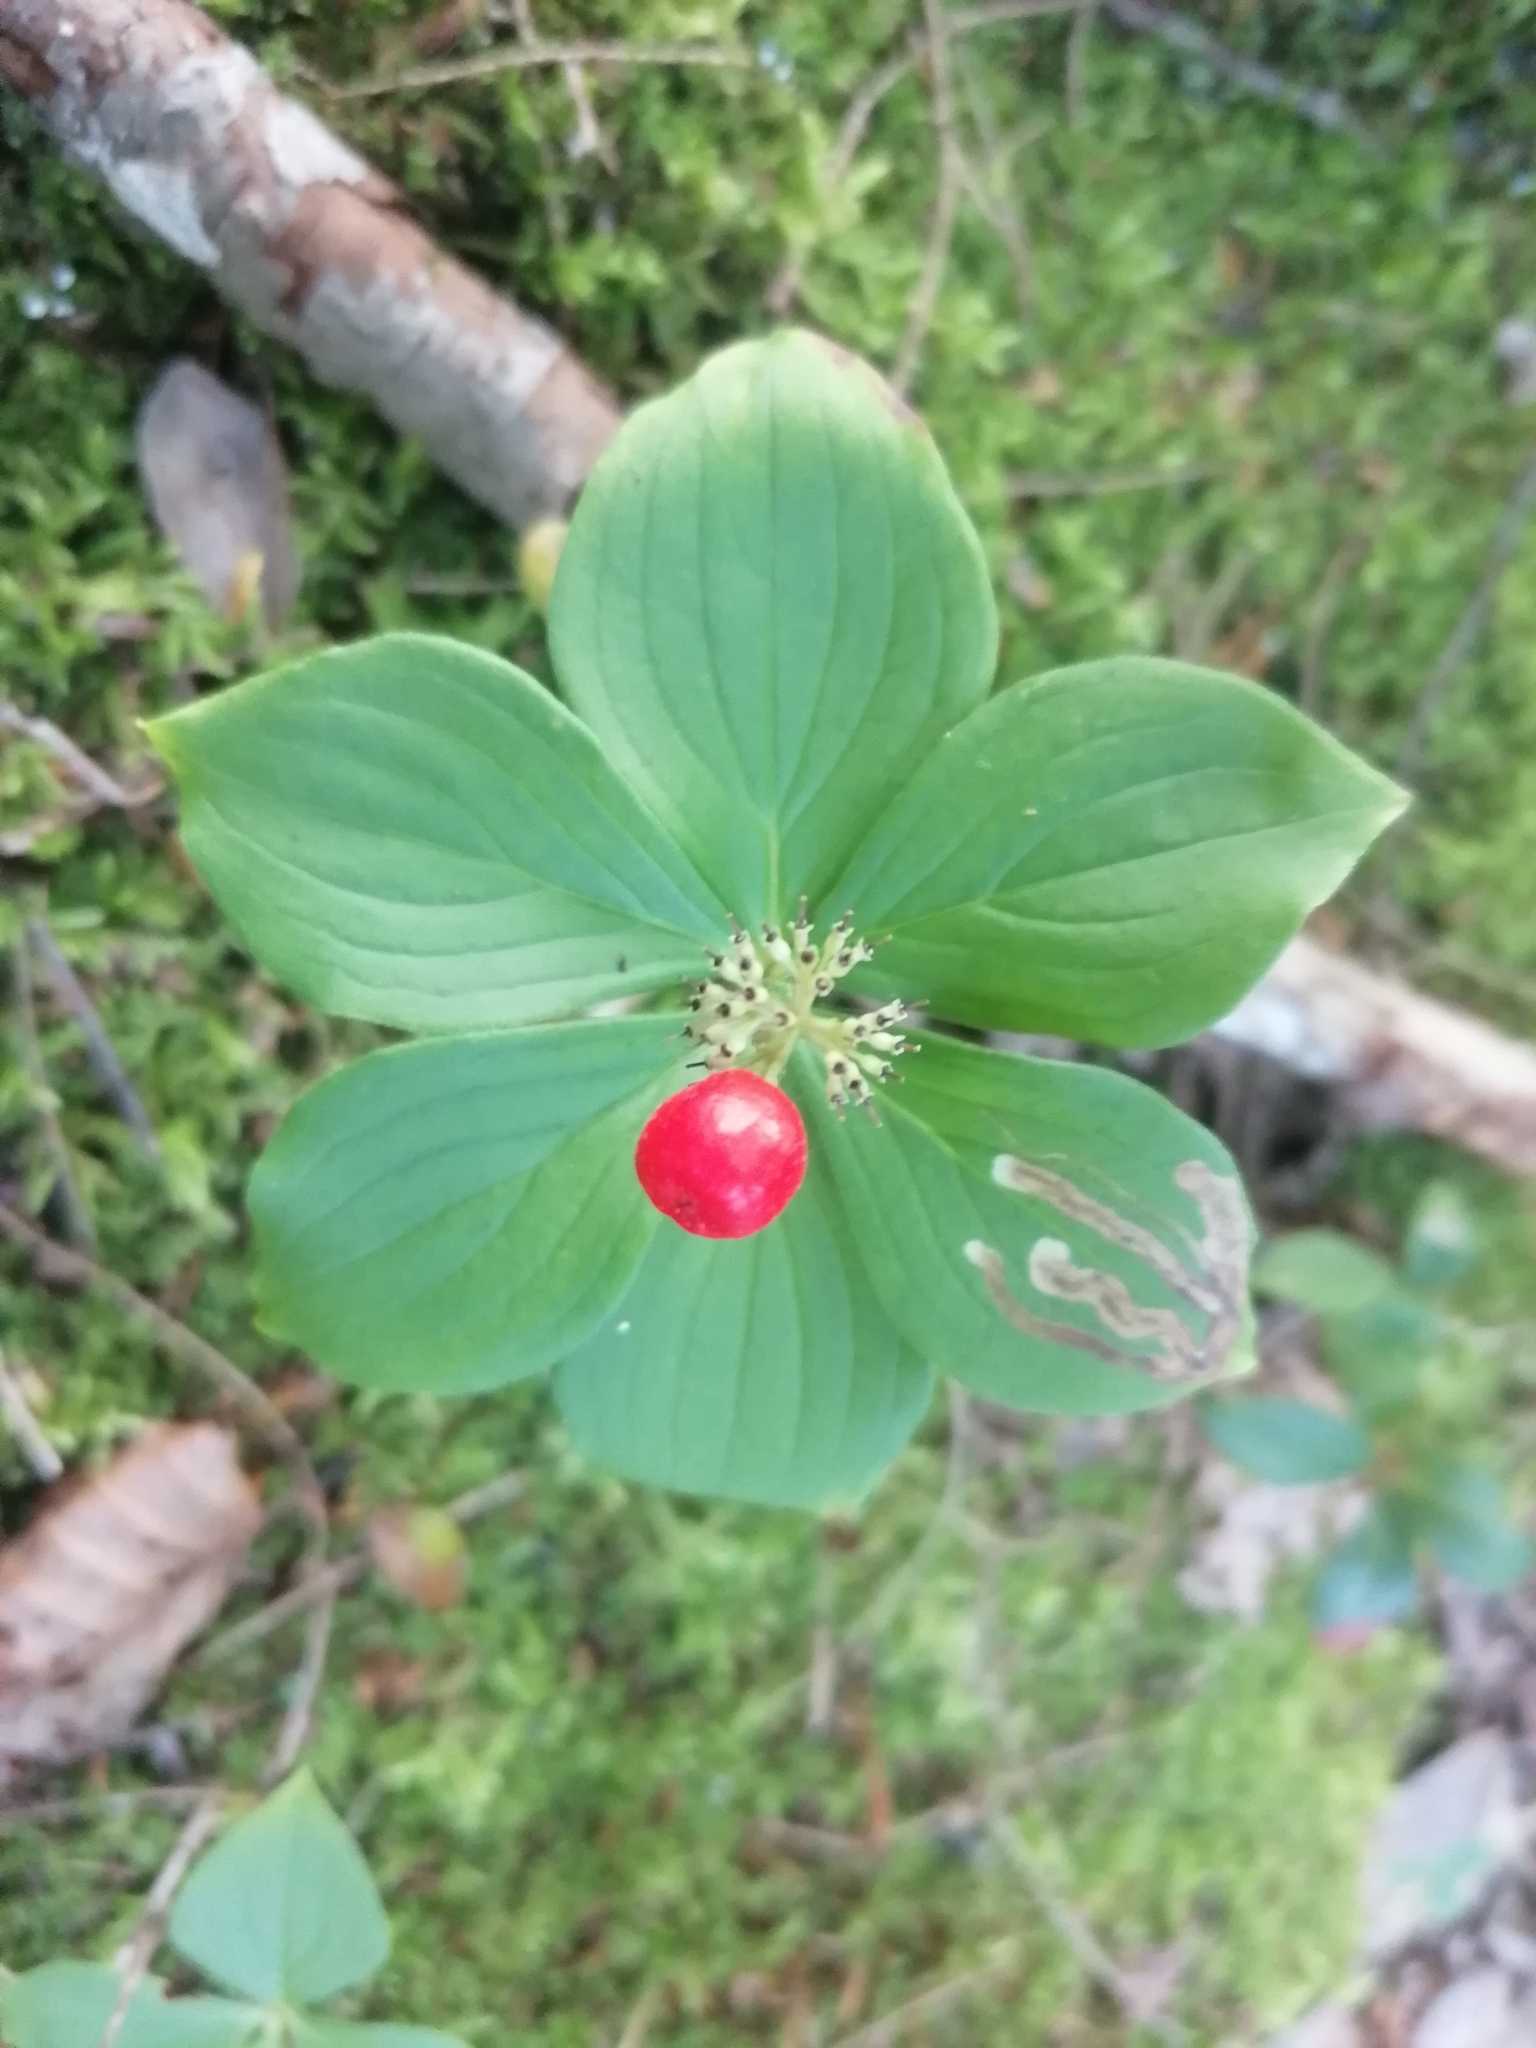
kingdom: Plantae
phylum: Tracheophyta
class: Magnoliopsida
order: Cornales
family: Cornaceae
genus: Cornus
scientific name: Cornus canadensis
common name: Creeping dogwood
